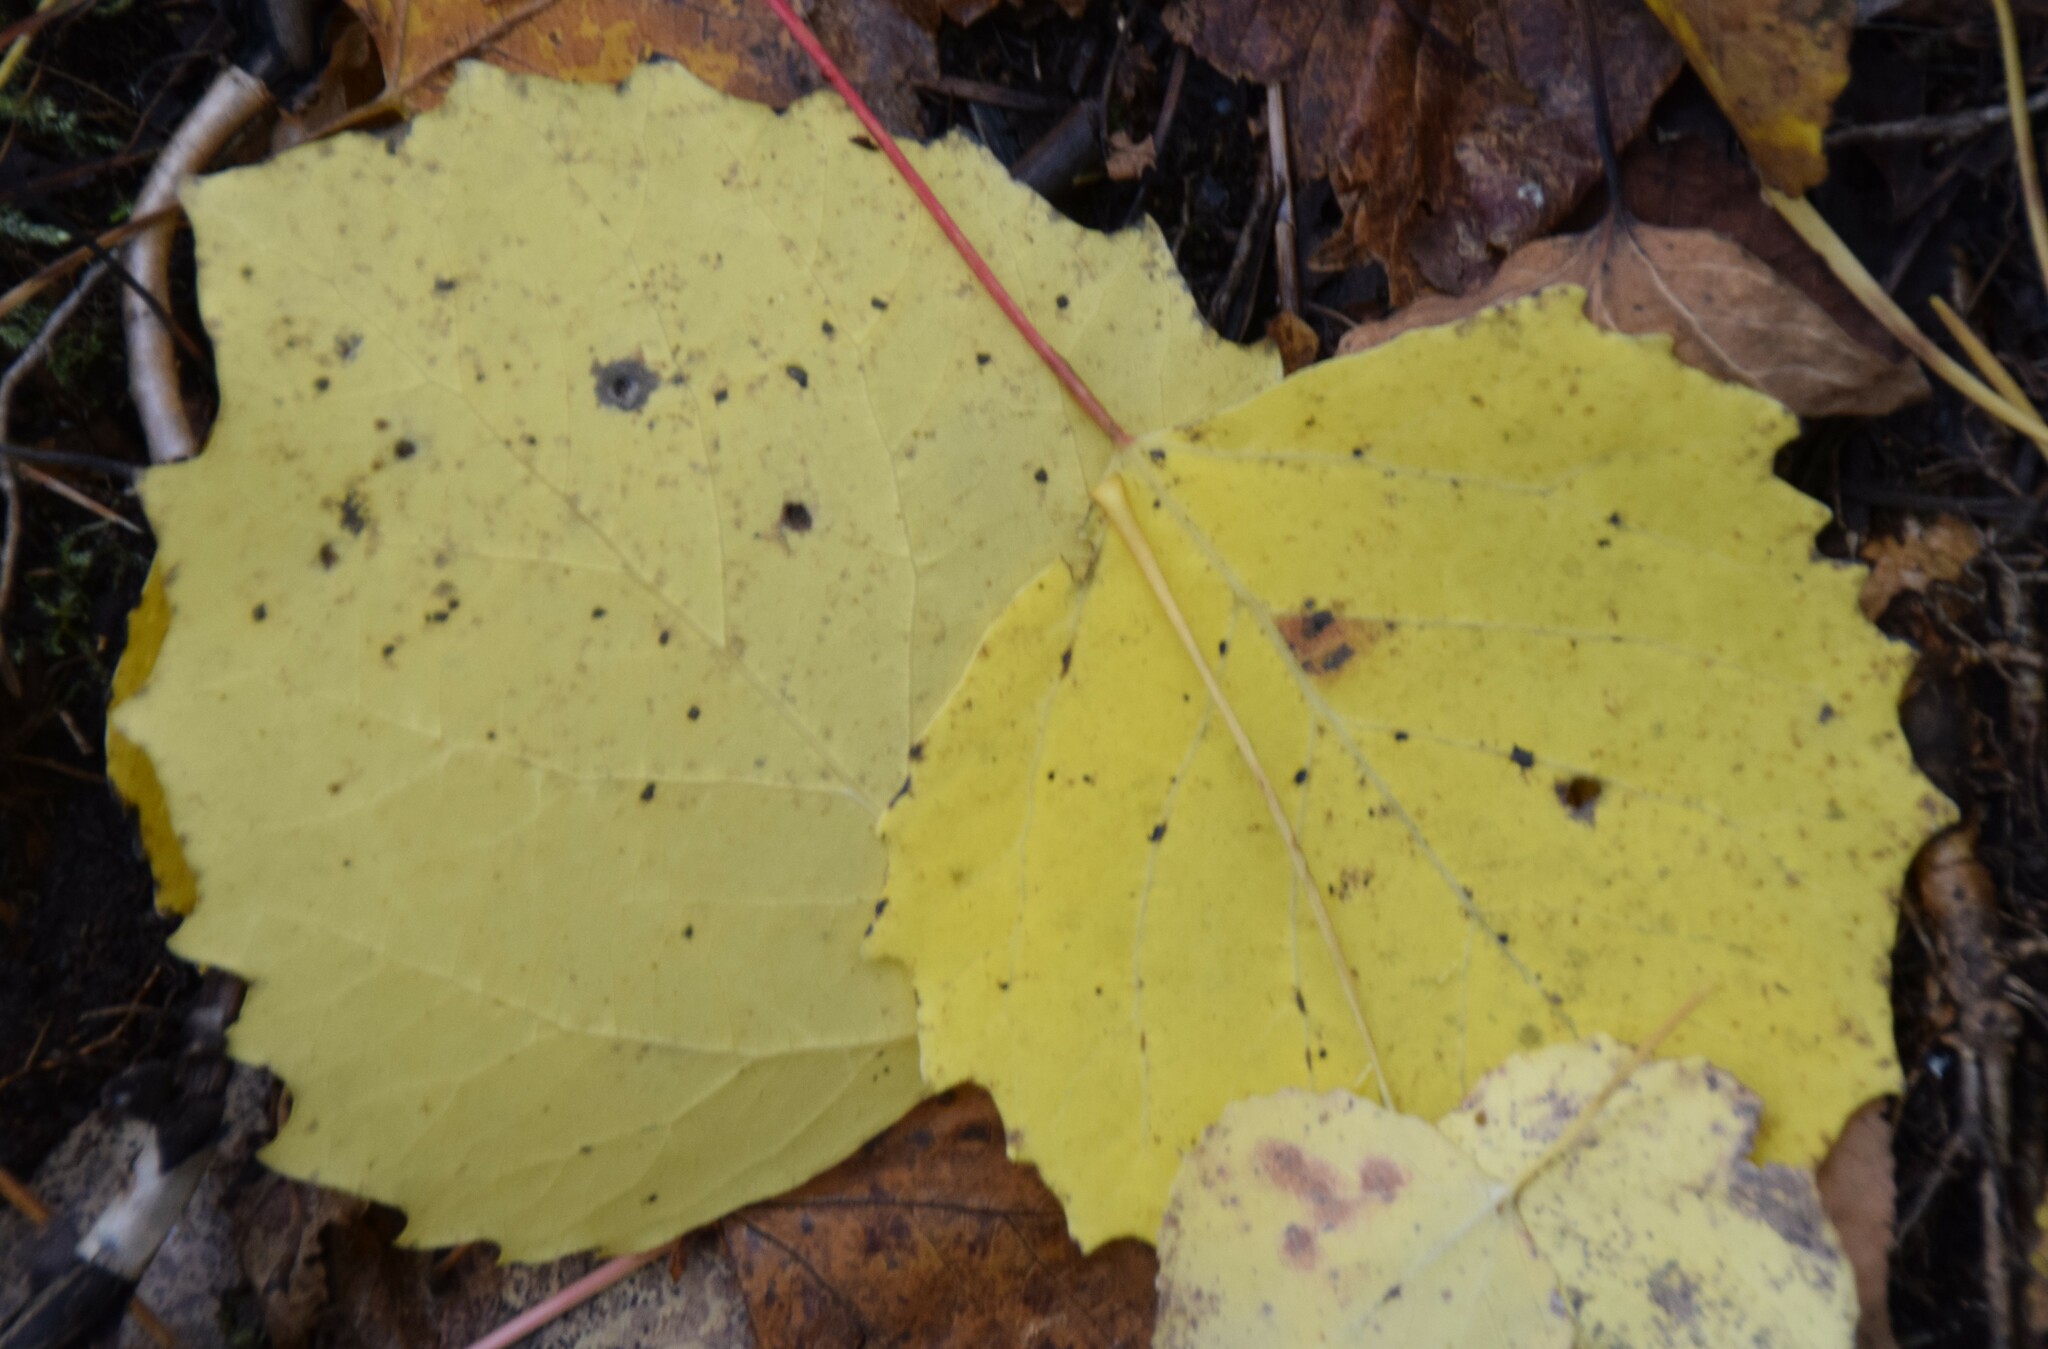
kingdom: Plantae
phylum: Tracheophyta
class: Magnoliopsida
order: Malpighiales
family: Salicaceae
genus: Populus
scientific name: Populus grandidentata
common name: Bigtooth aspen
